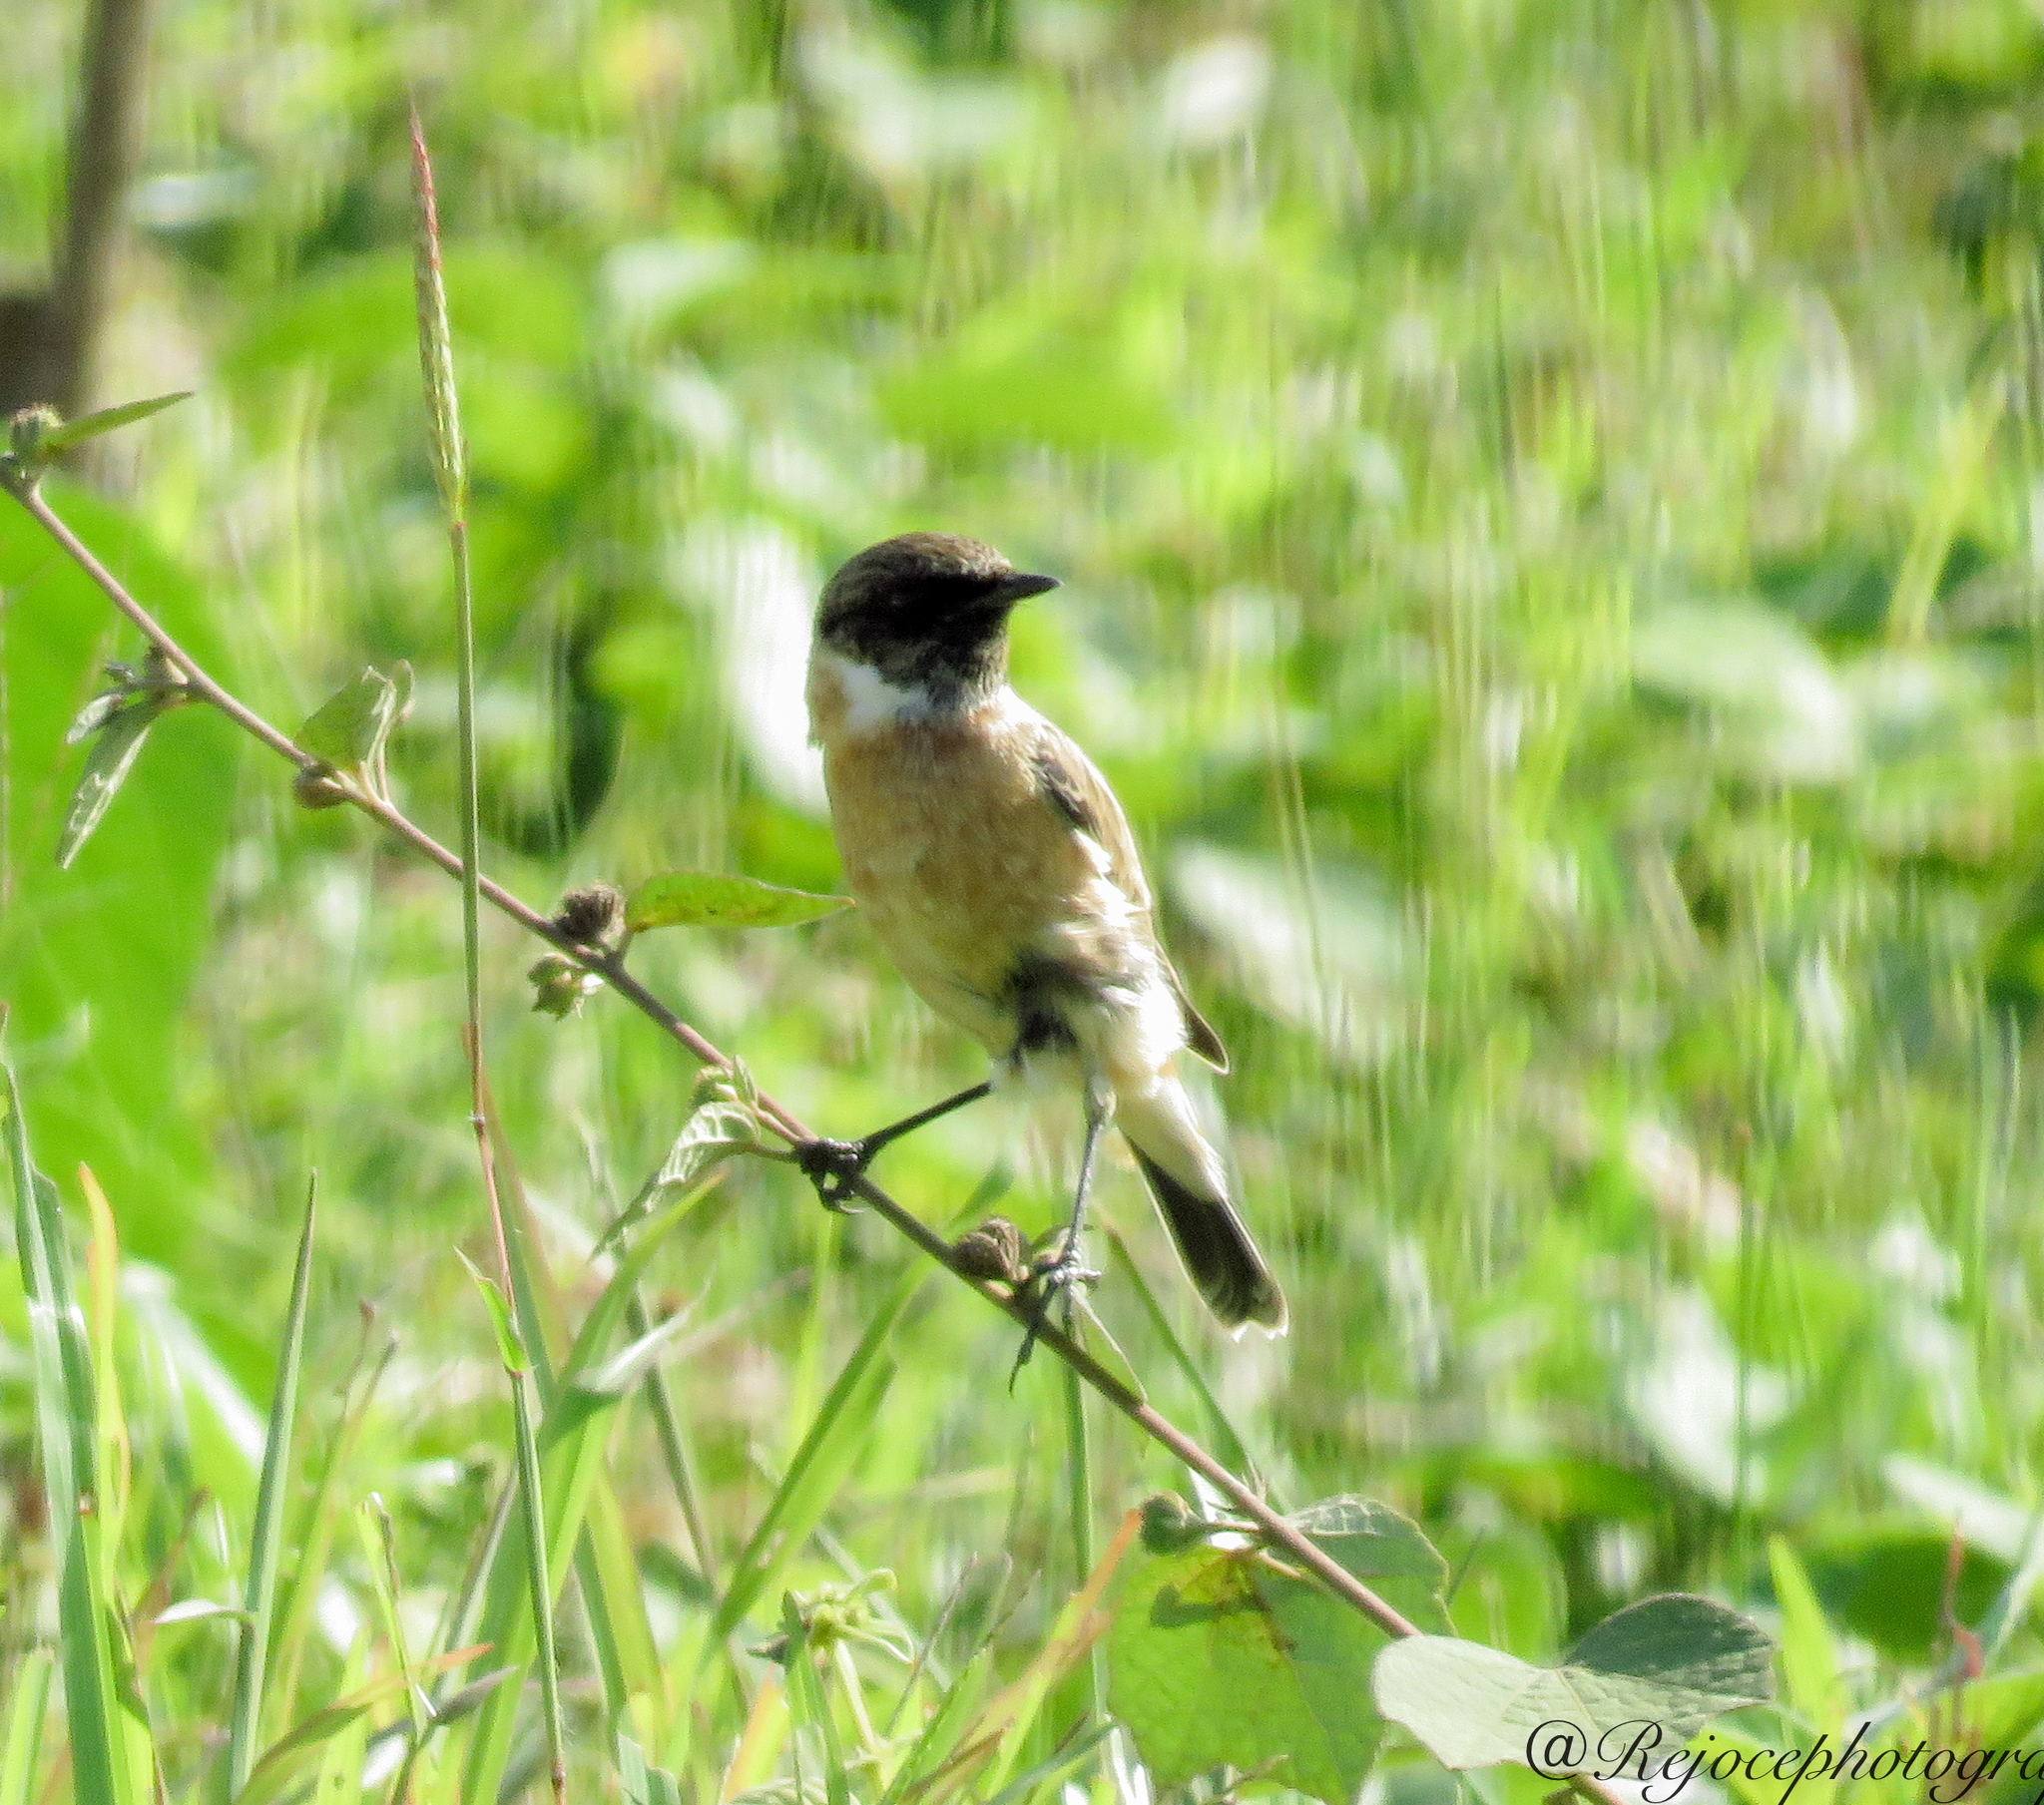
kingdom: Animalia
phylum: Chordata
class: Aves
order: Passeriformes
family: Muscicapidae
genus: Saxicola
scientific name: Saxicola maurus
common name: Siberian stonechat
